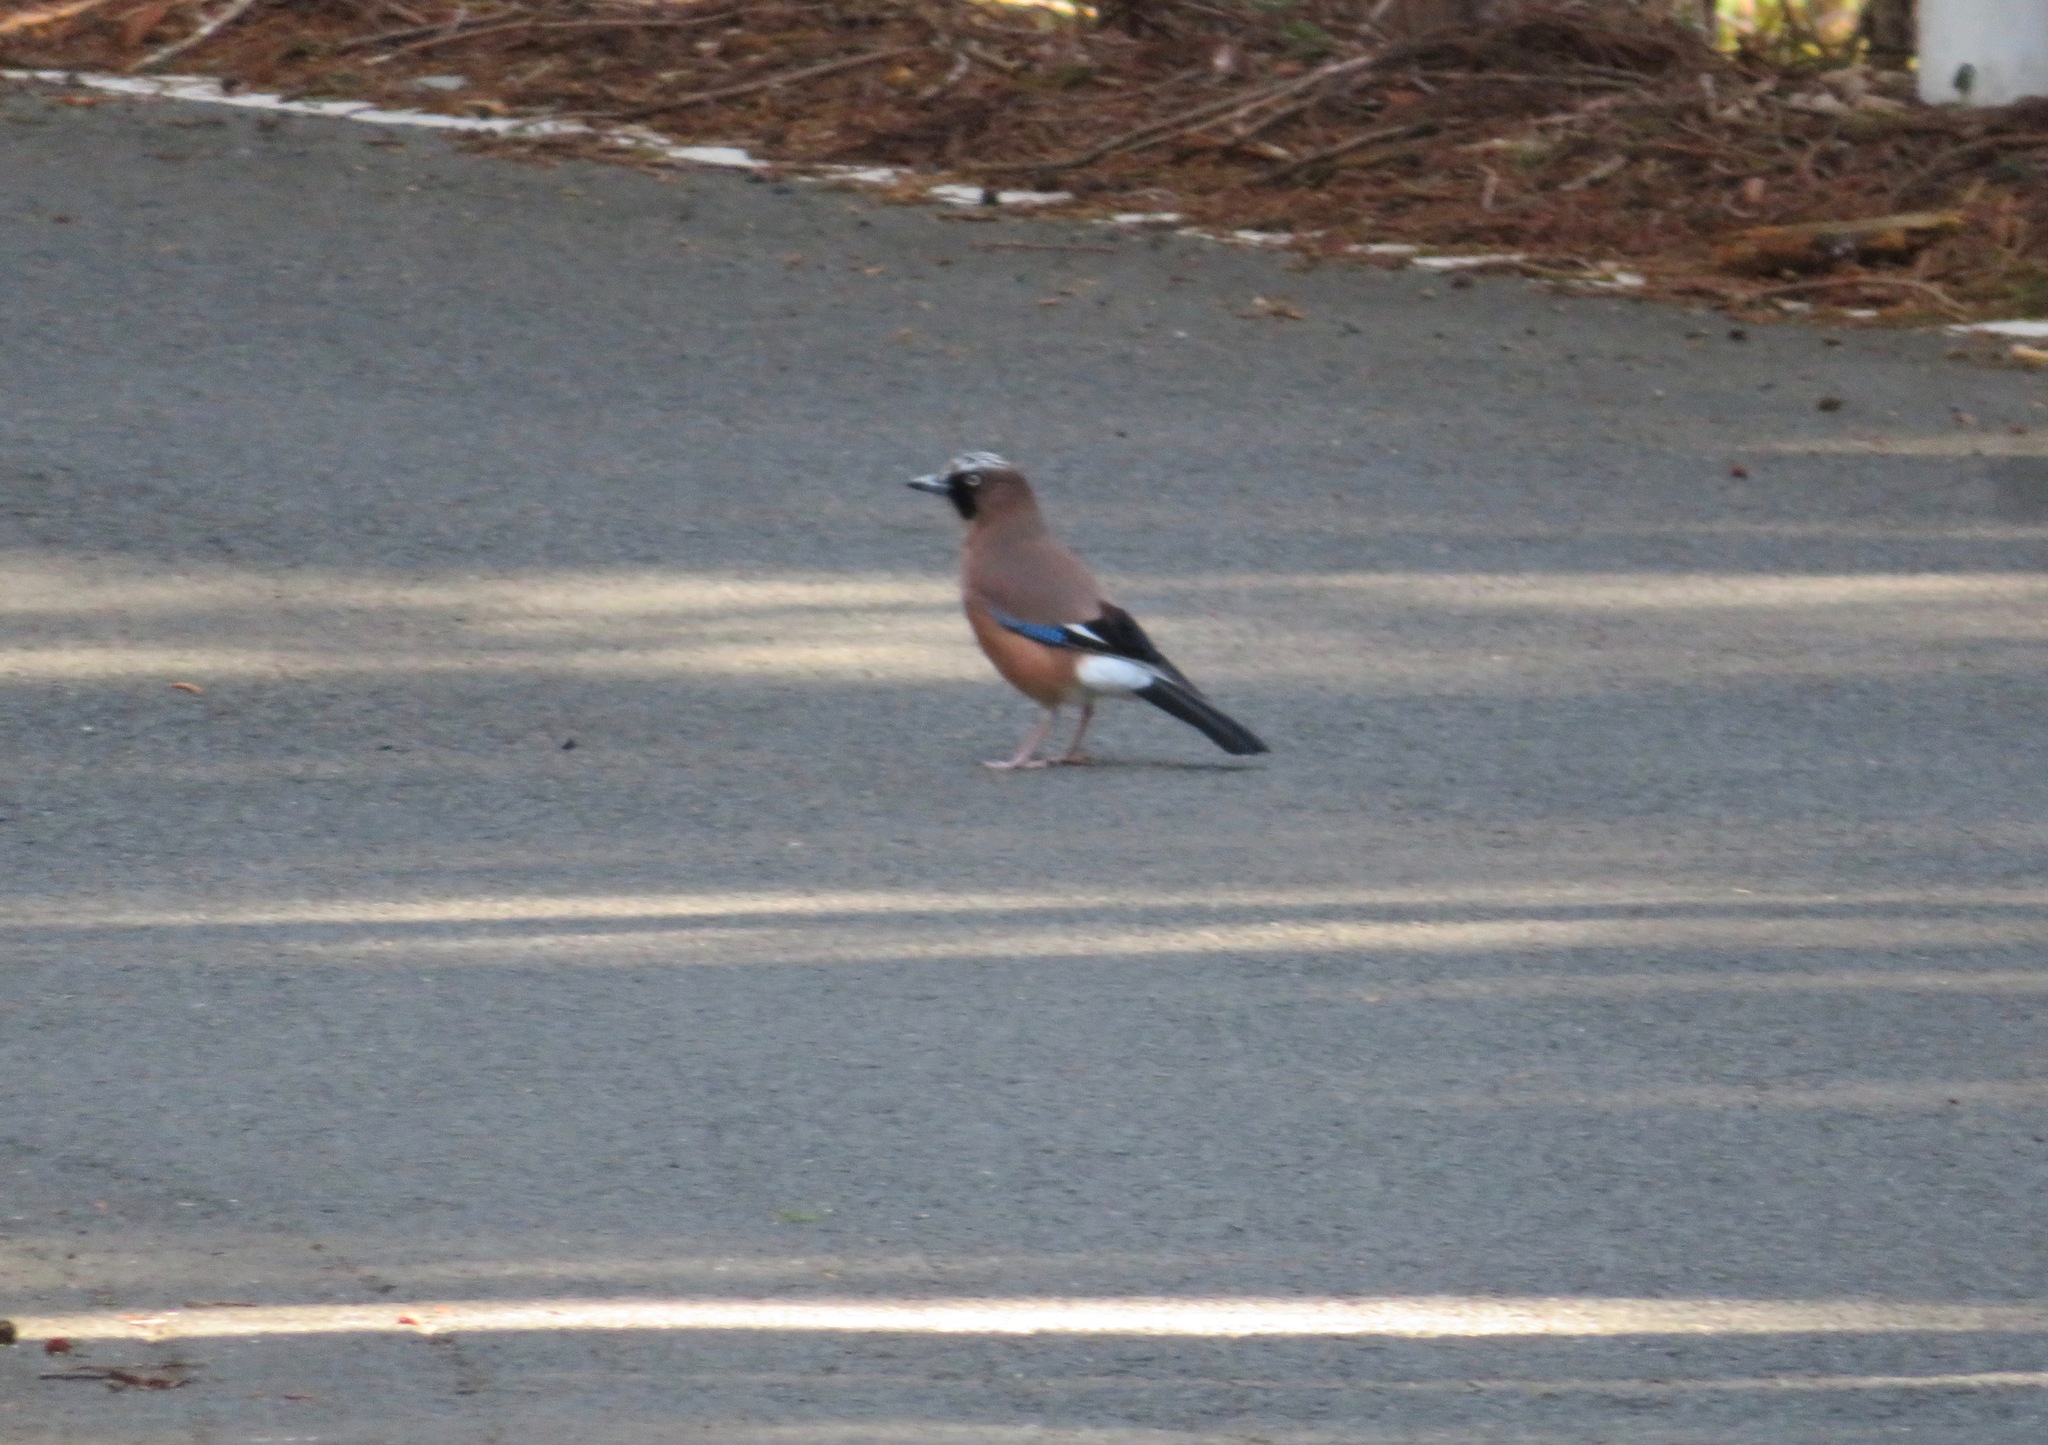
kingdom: Animalia
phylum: Chordata
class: Aves
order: Passeriformes
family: Corvidae
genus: Garrulus
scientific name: Garrulus glandarius
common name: Eurasian jay
